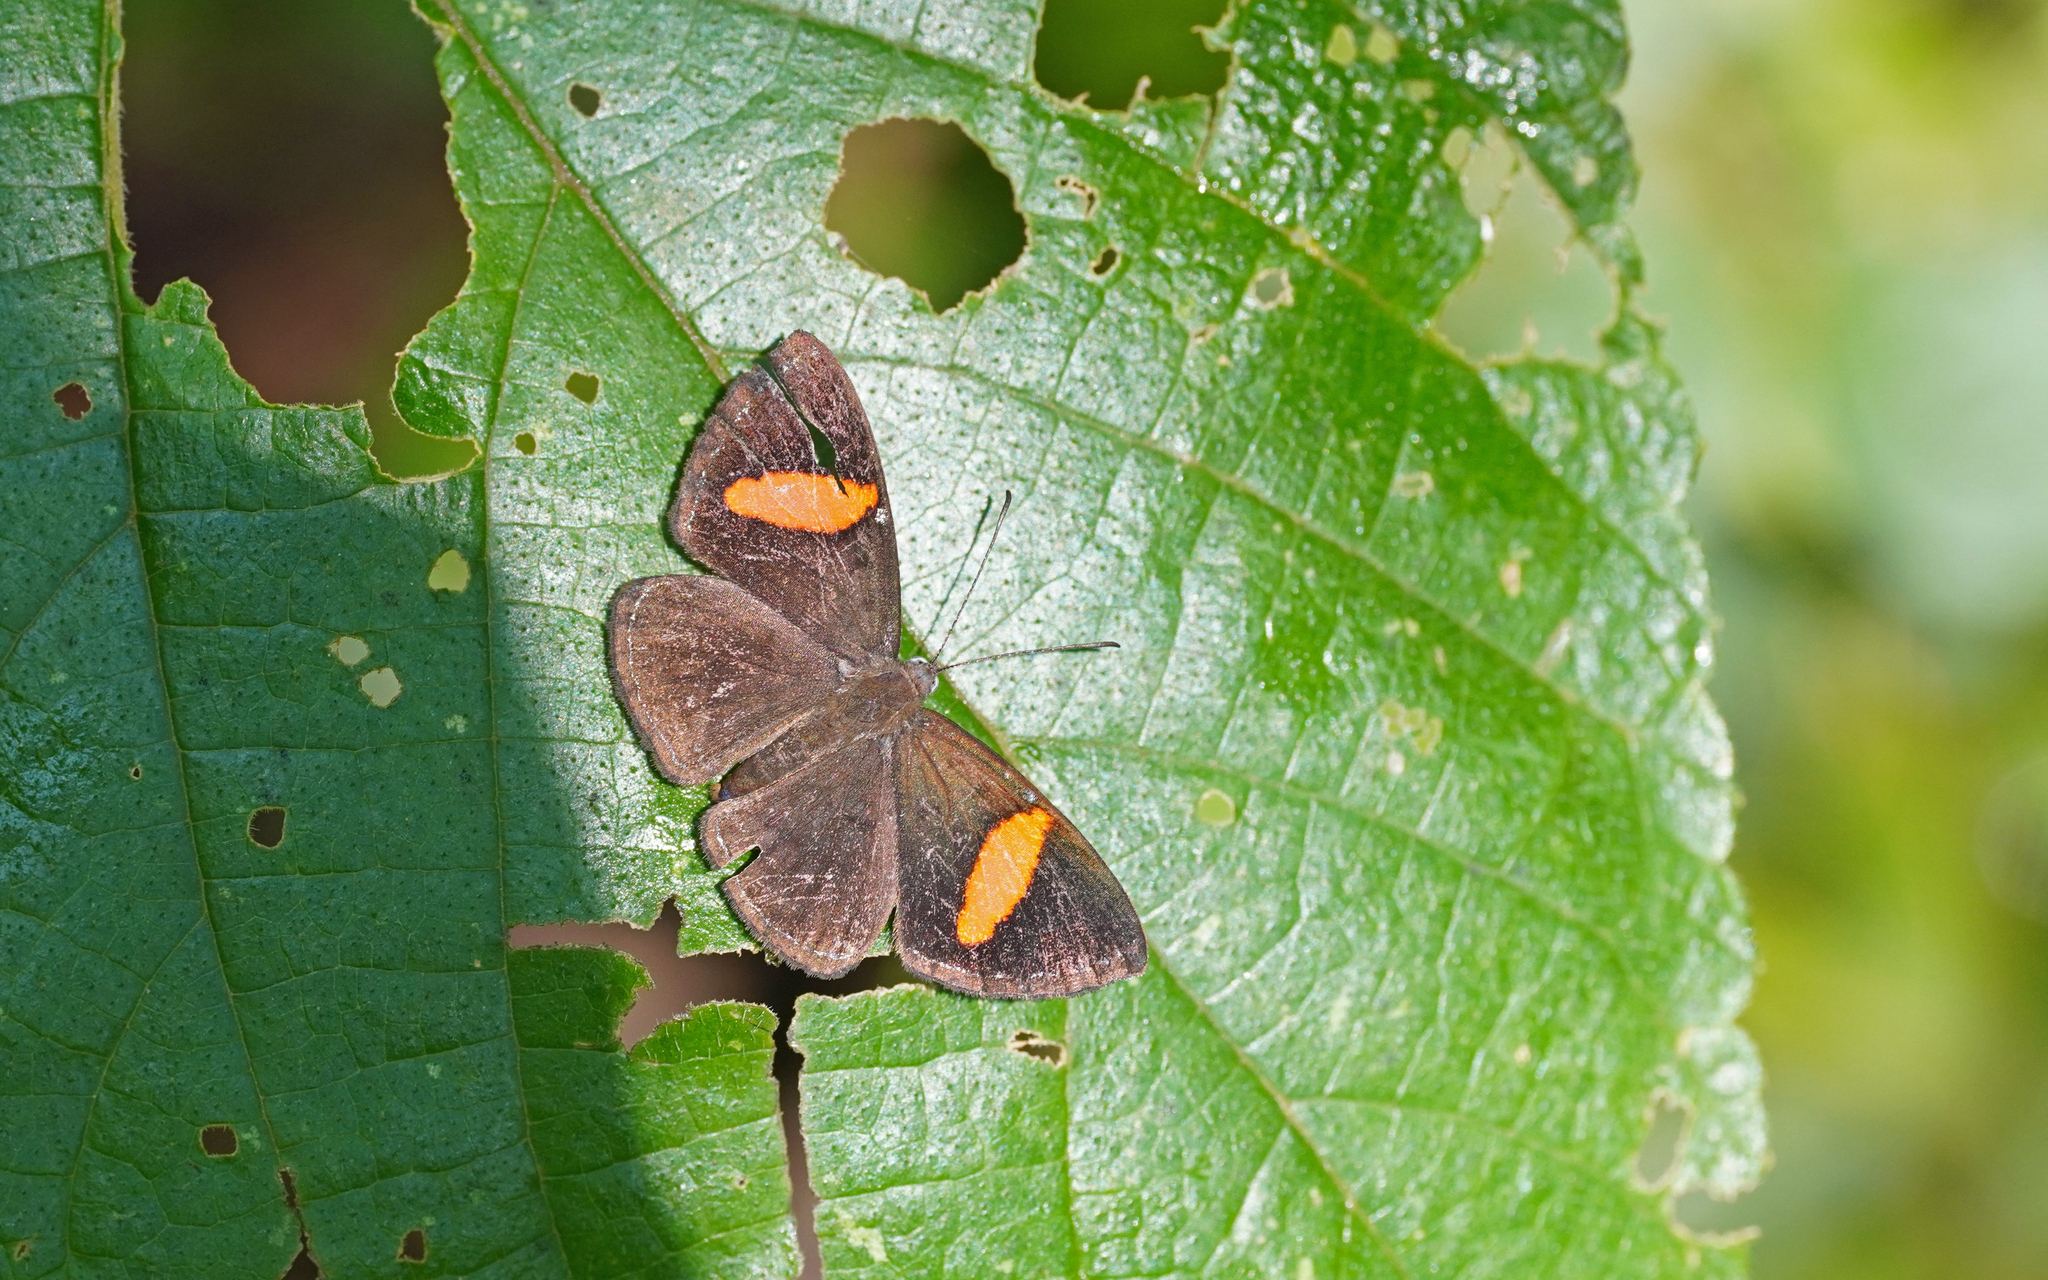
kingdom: Animalia
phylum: Arthropoda
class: Insecta
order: Lepidoptera
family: Riodinidae
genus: Crocozona
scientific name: Crocozona fasciata
